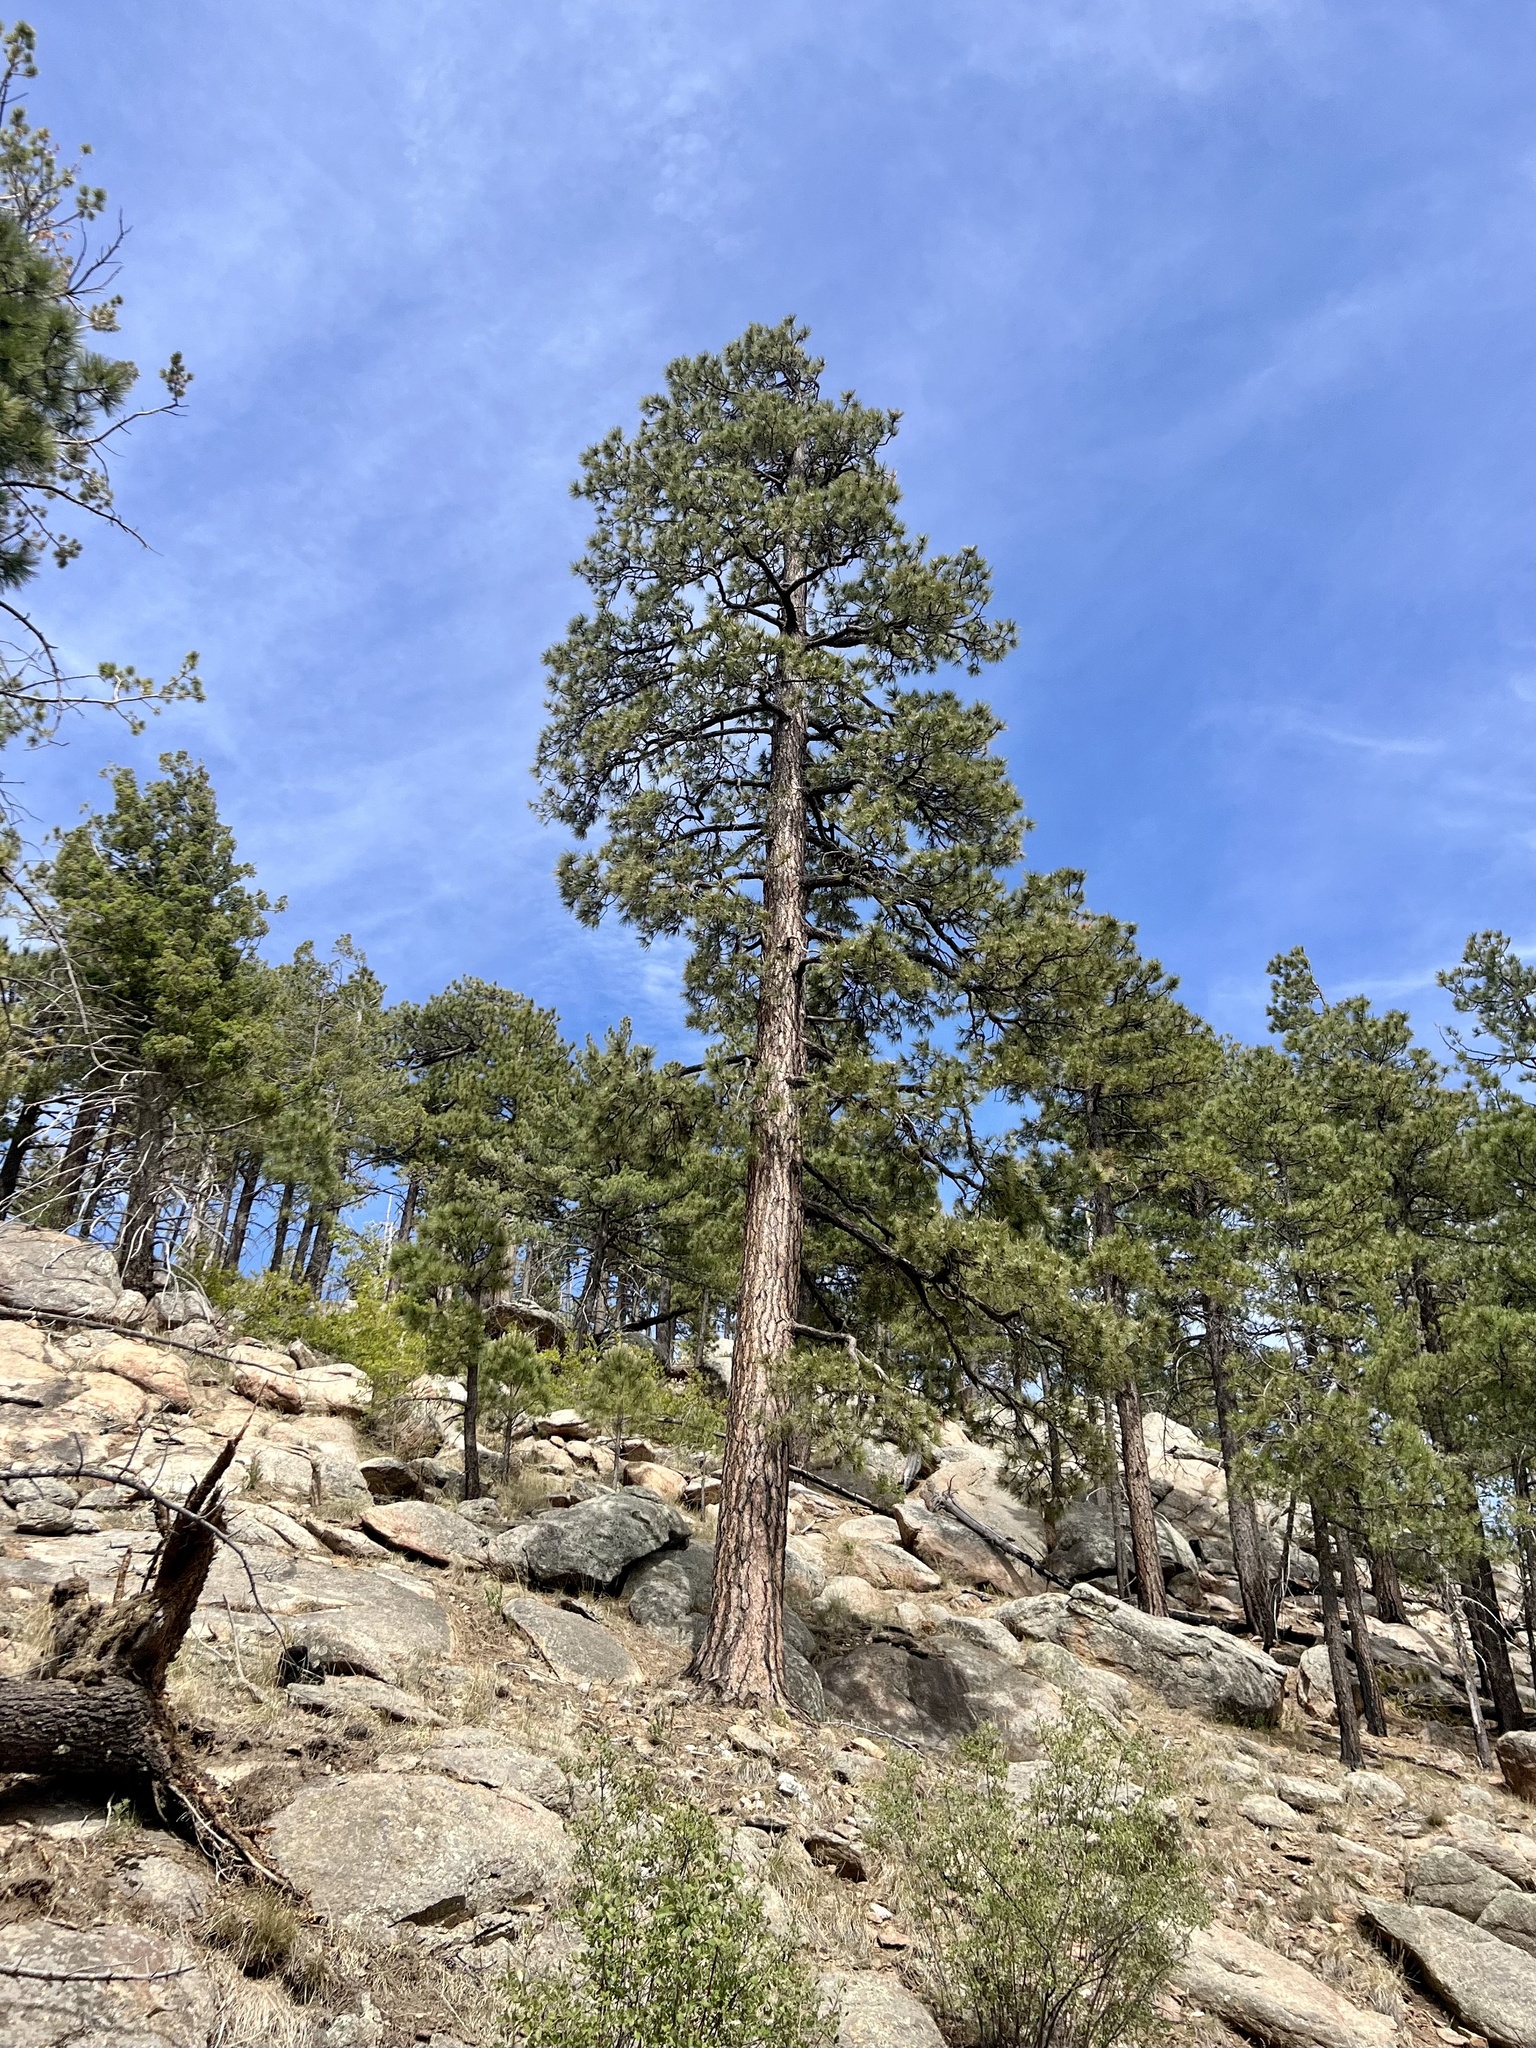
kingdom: Plantae
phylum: Tracheophyta
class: Pinopsida
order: Pinales
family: Pinaceae
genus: Pinus
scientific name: Pinus ponderosa
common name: Western yellow-pine
